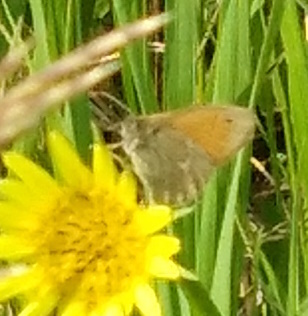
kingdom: Animalia
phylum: Arthropoda
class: Insecta
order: Lepidoptera
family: Nymphalidae
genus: Coenonympha
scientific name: Coenonympha california
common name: Common ringlet
